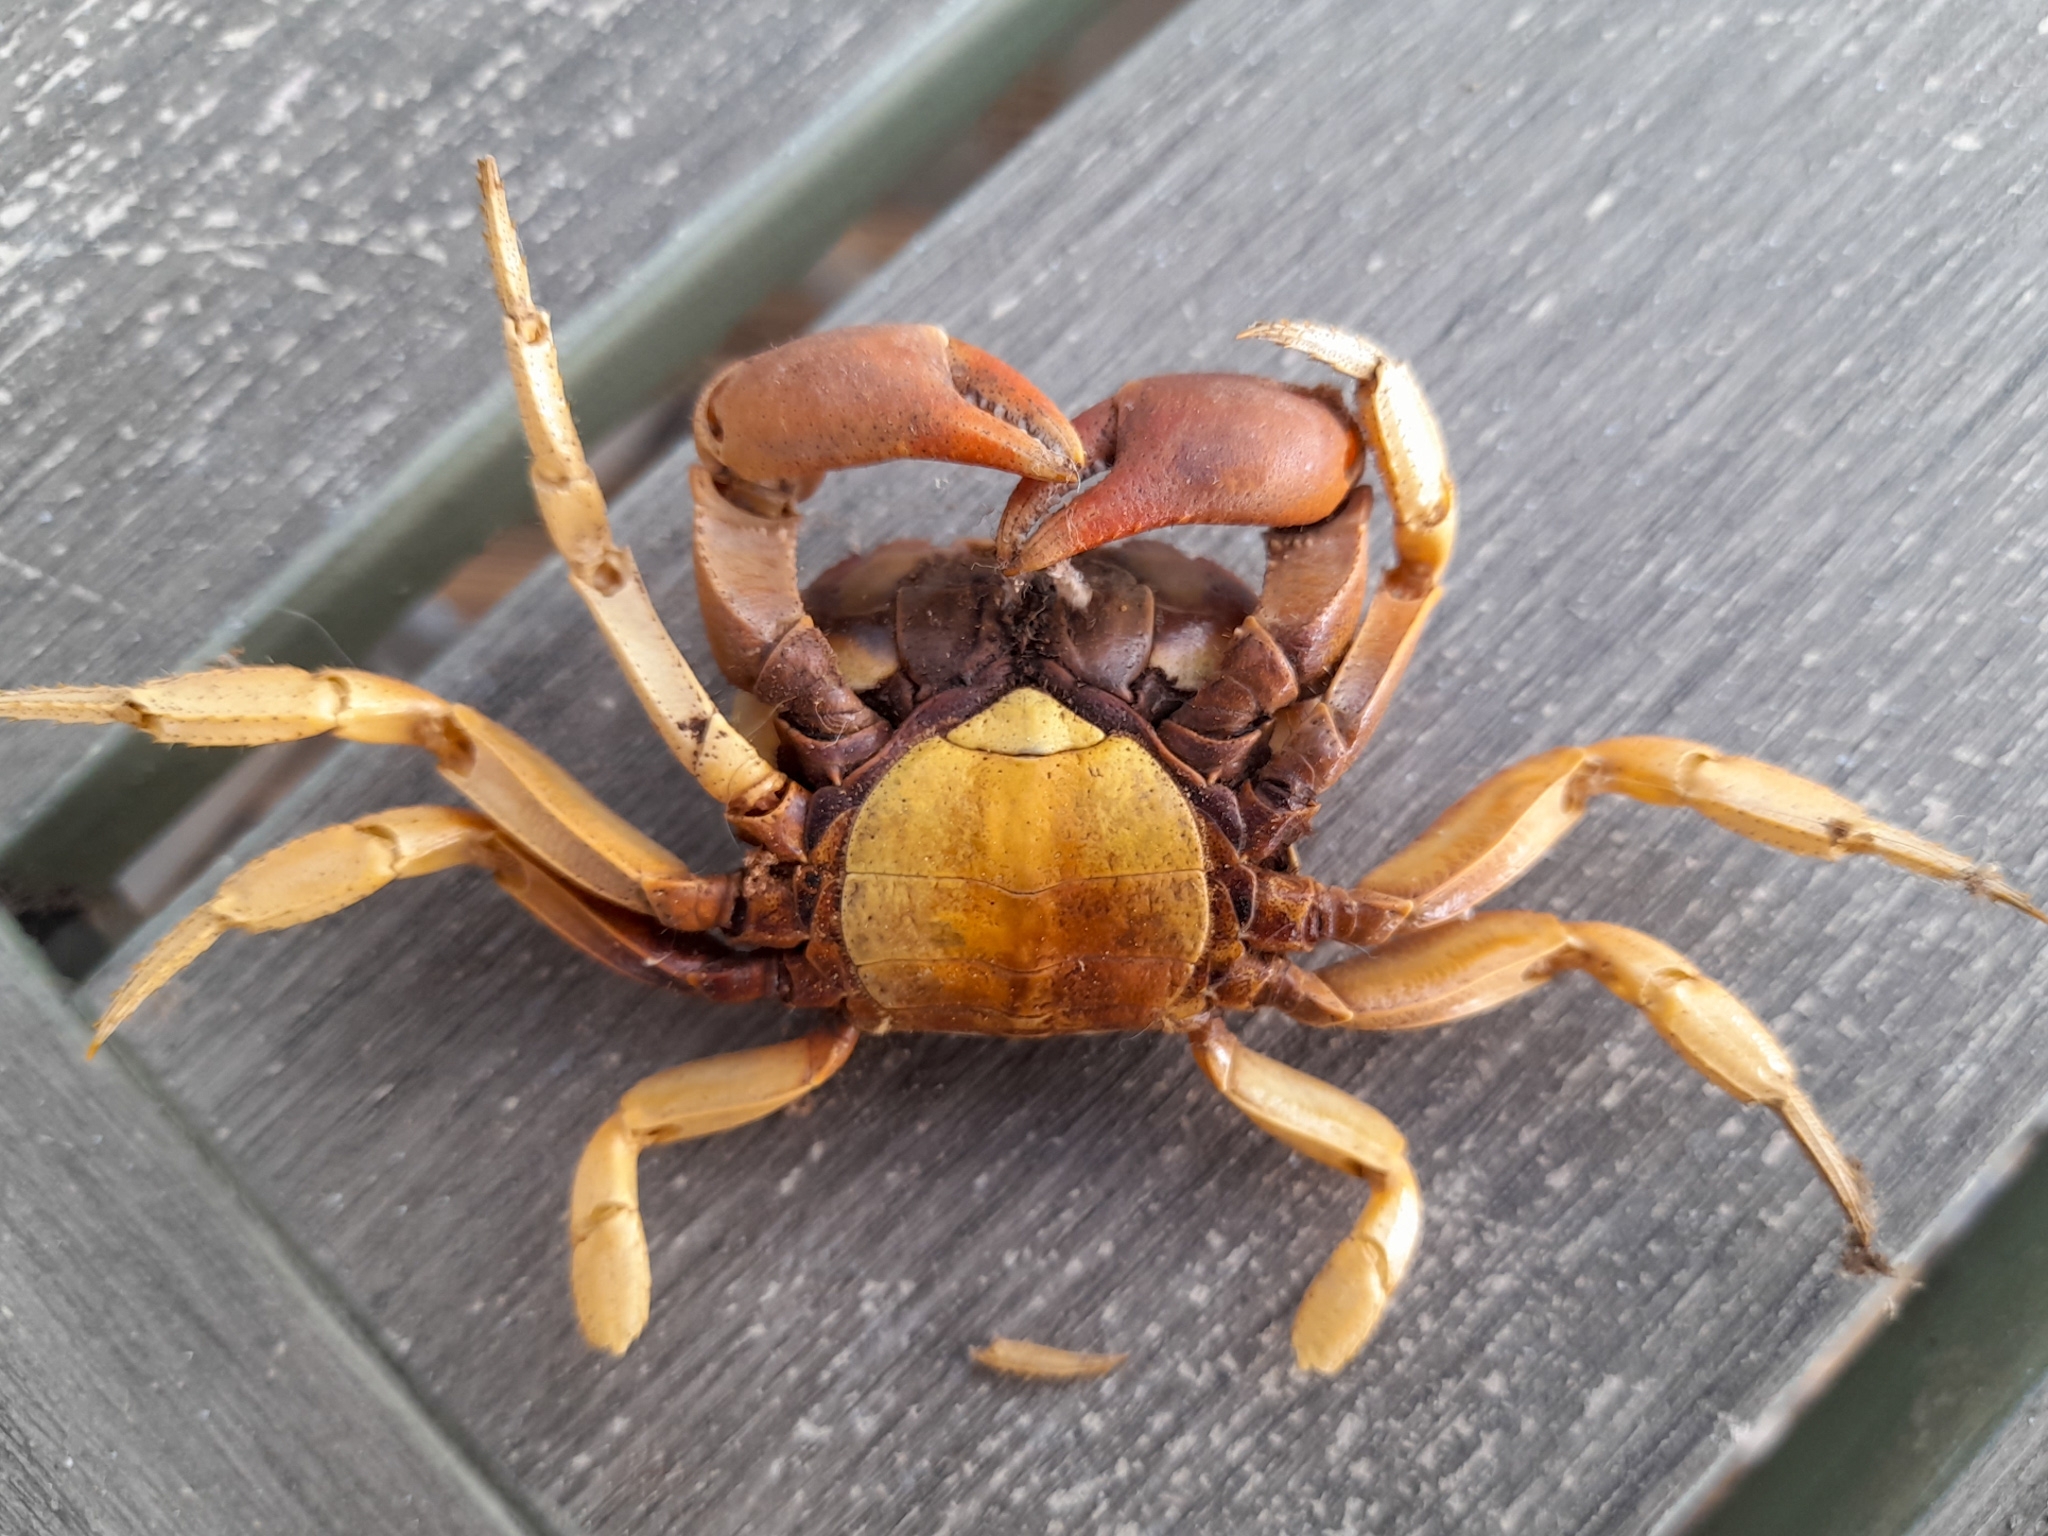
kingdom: Animalia
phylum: Arthropoda
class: Malacostraca
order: Decapoda
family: Gecarcinidae
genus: Gecarcinus
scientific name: Gecarcinus lateralis
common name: Bermuda land crab
